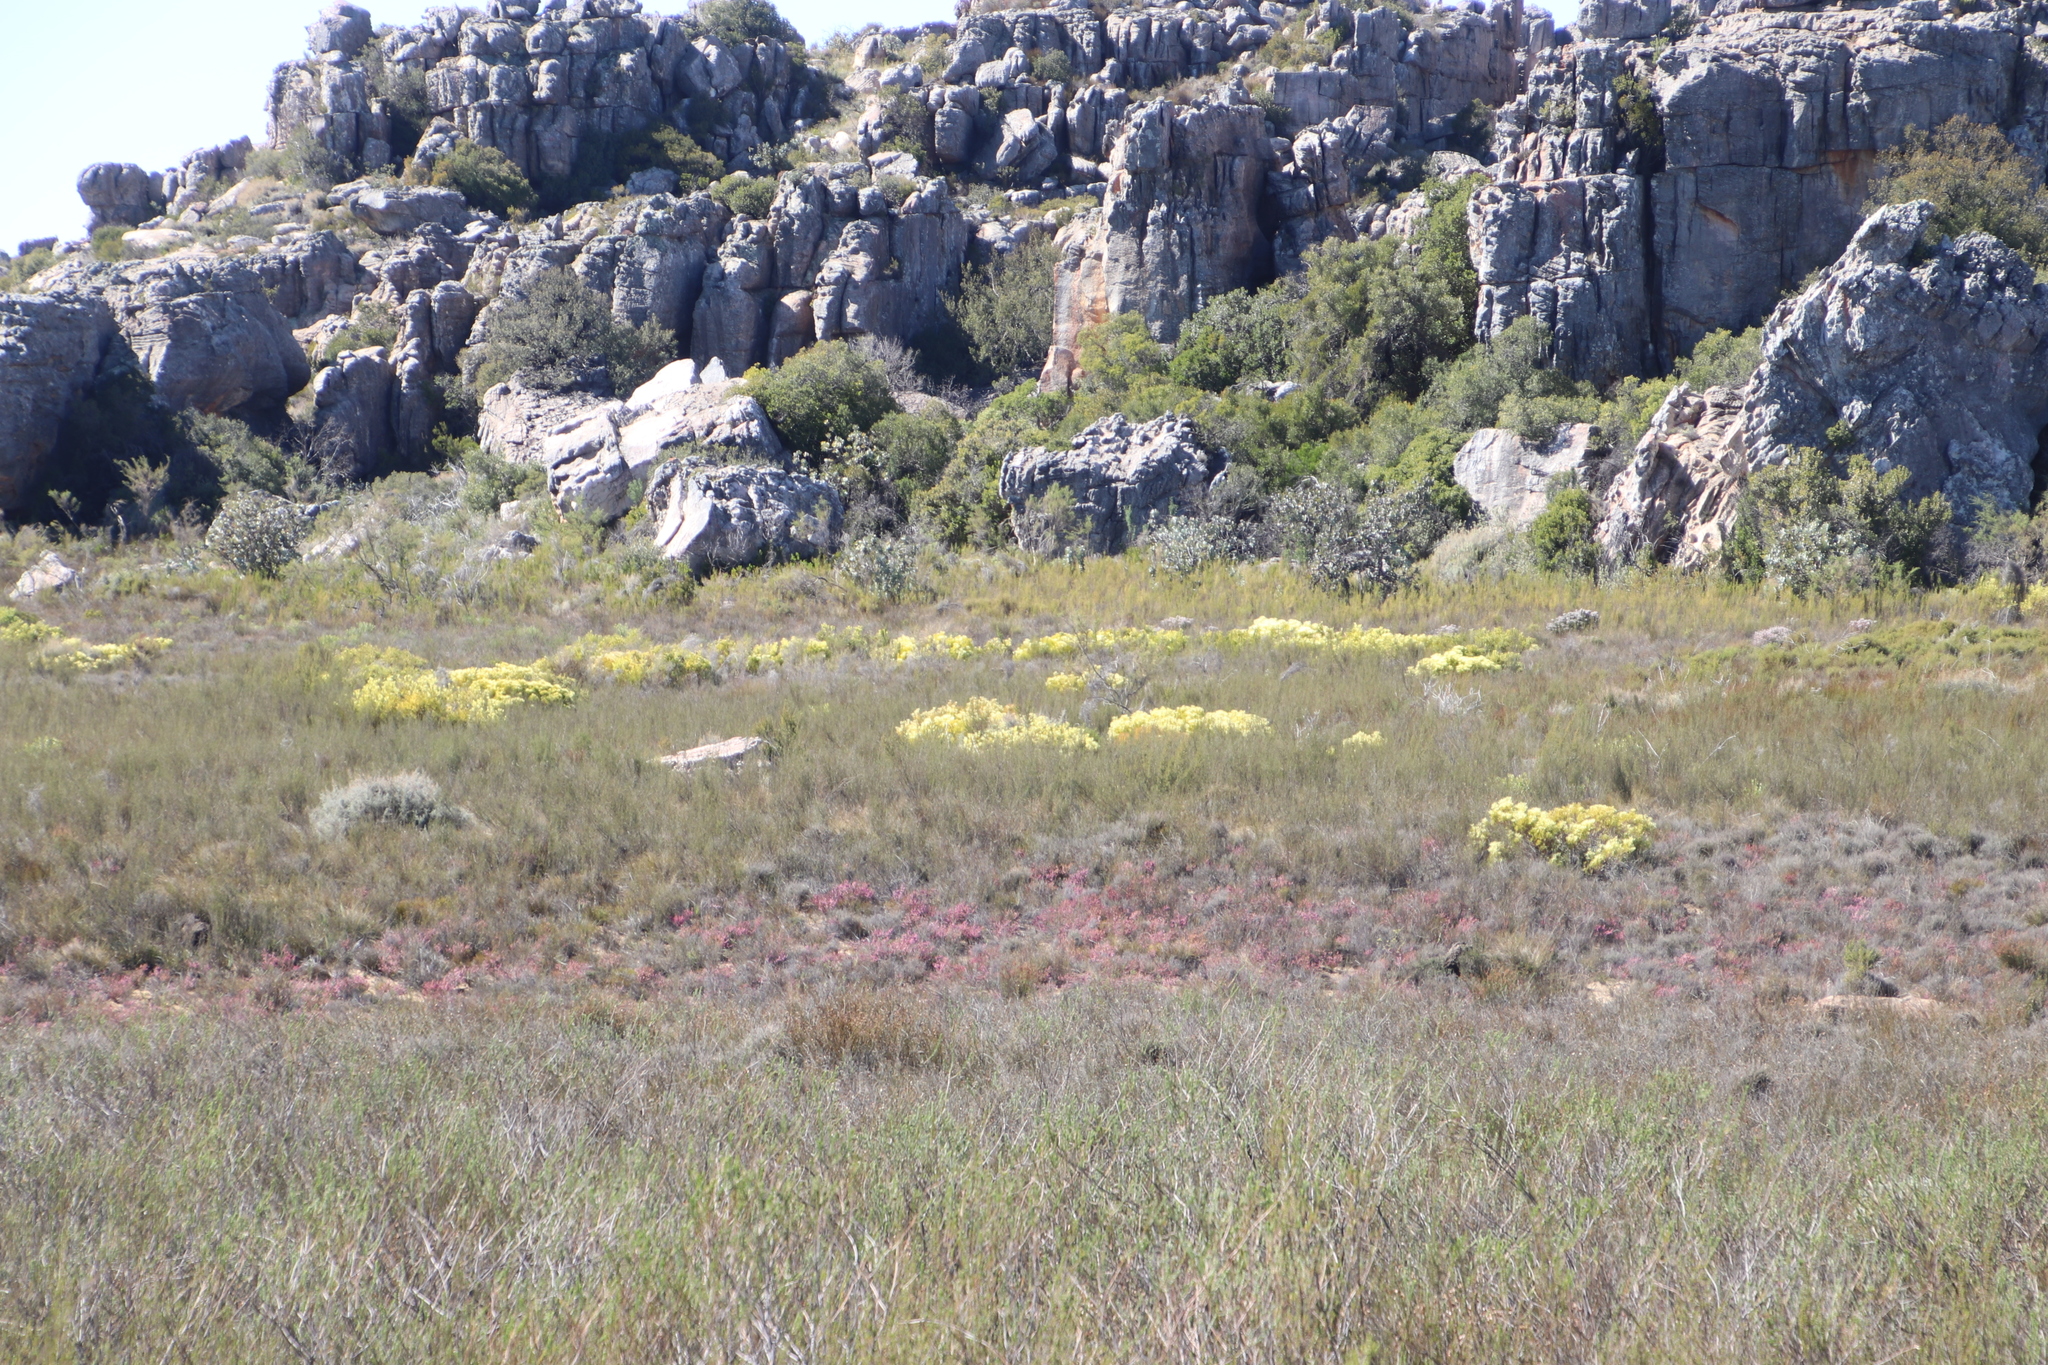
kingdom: Plantae
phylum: Tracheophyta
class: Magnoliopsida
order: Proteales
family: Proteaceae
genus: Leucadendron
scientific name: Leucadendron salignum
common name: Common sunshine conebush
